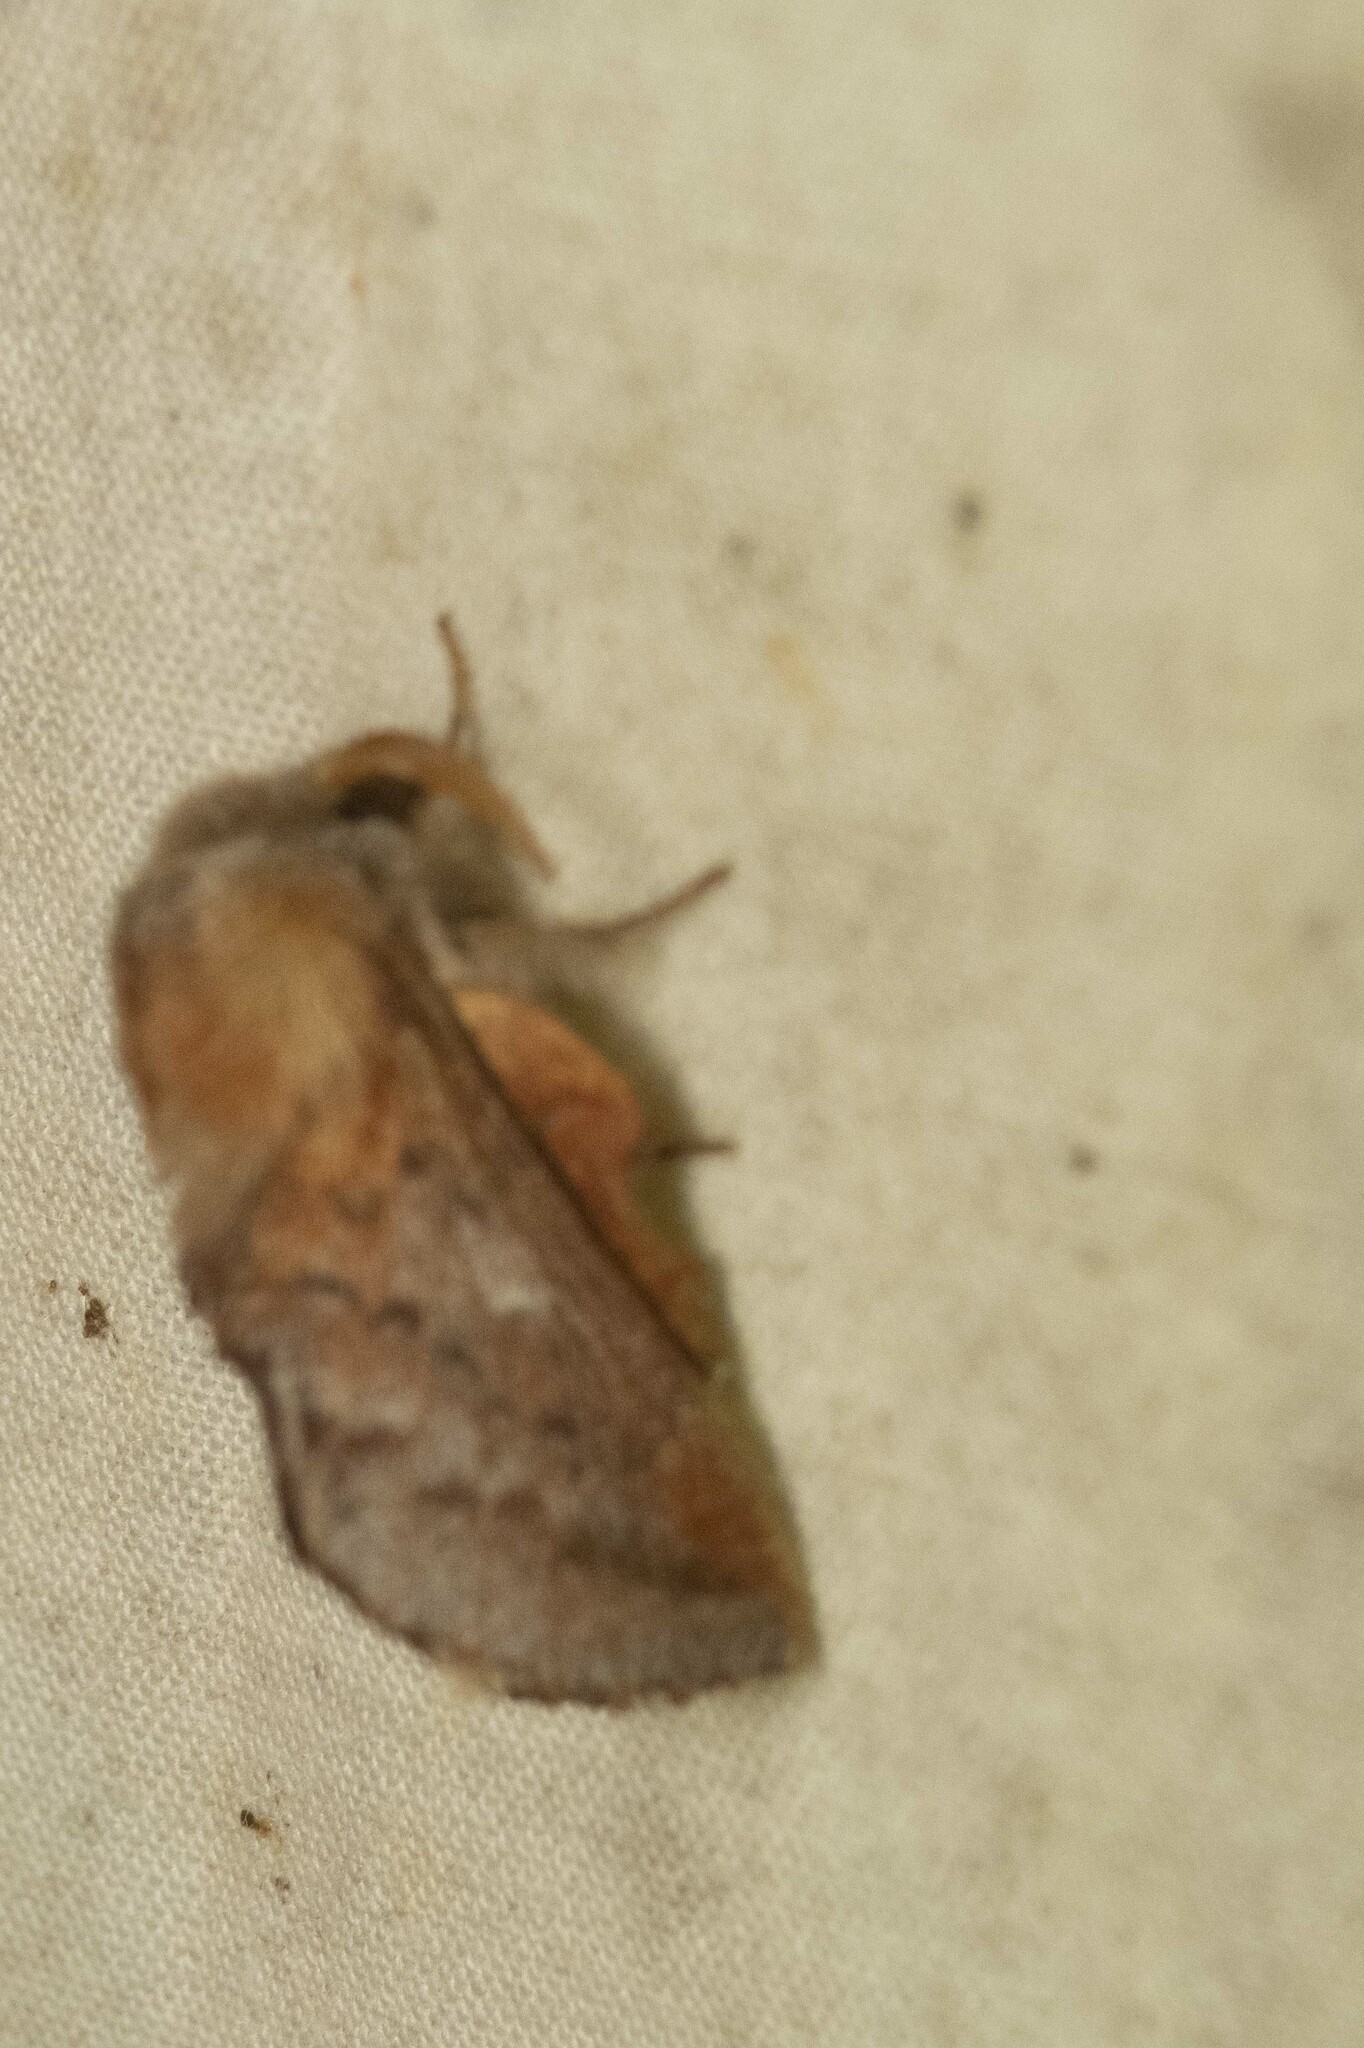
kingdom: Animalia
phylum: Arthropoda
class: Insecta
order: Lepidoptera
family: Lasiocampidae
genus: Phyllodesma
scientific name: Phyllodesma americana
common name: American lappet moth
